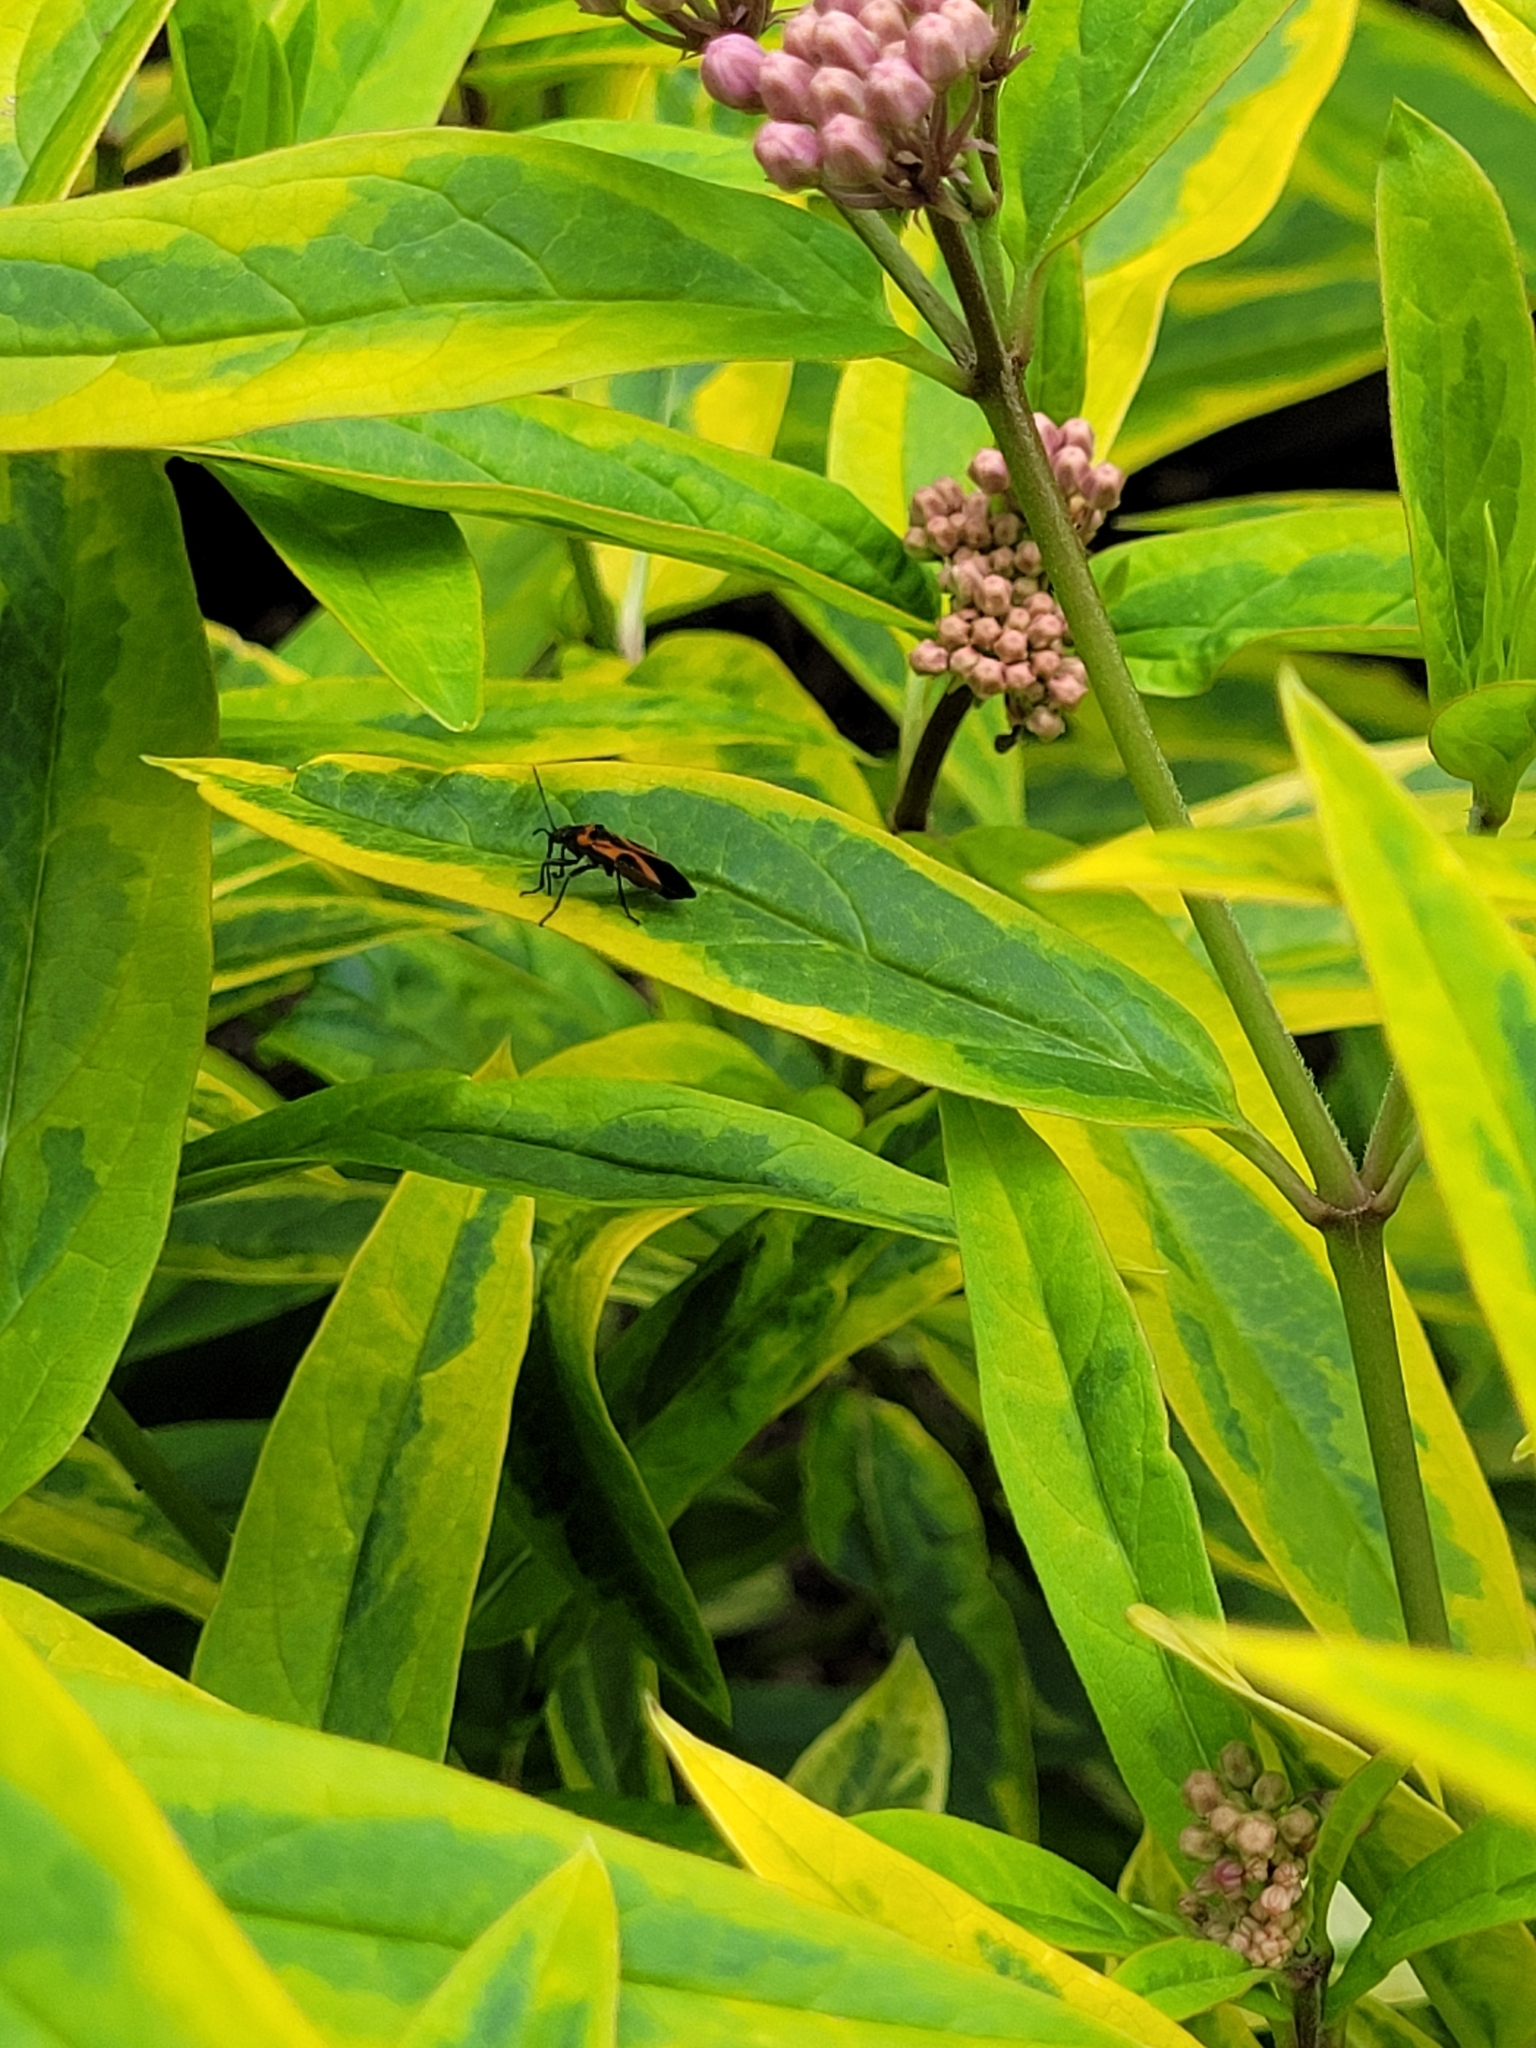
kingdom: Animalia
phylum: Arthropoda
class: Insecta
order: Hemiptera
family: Lygaeidae
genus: Lygaeus
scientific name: Lygaeus turcicus
